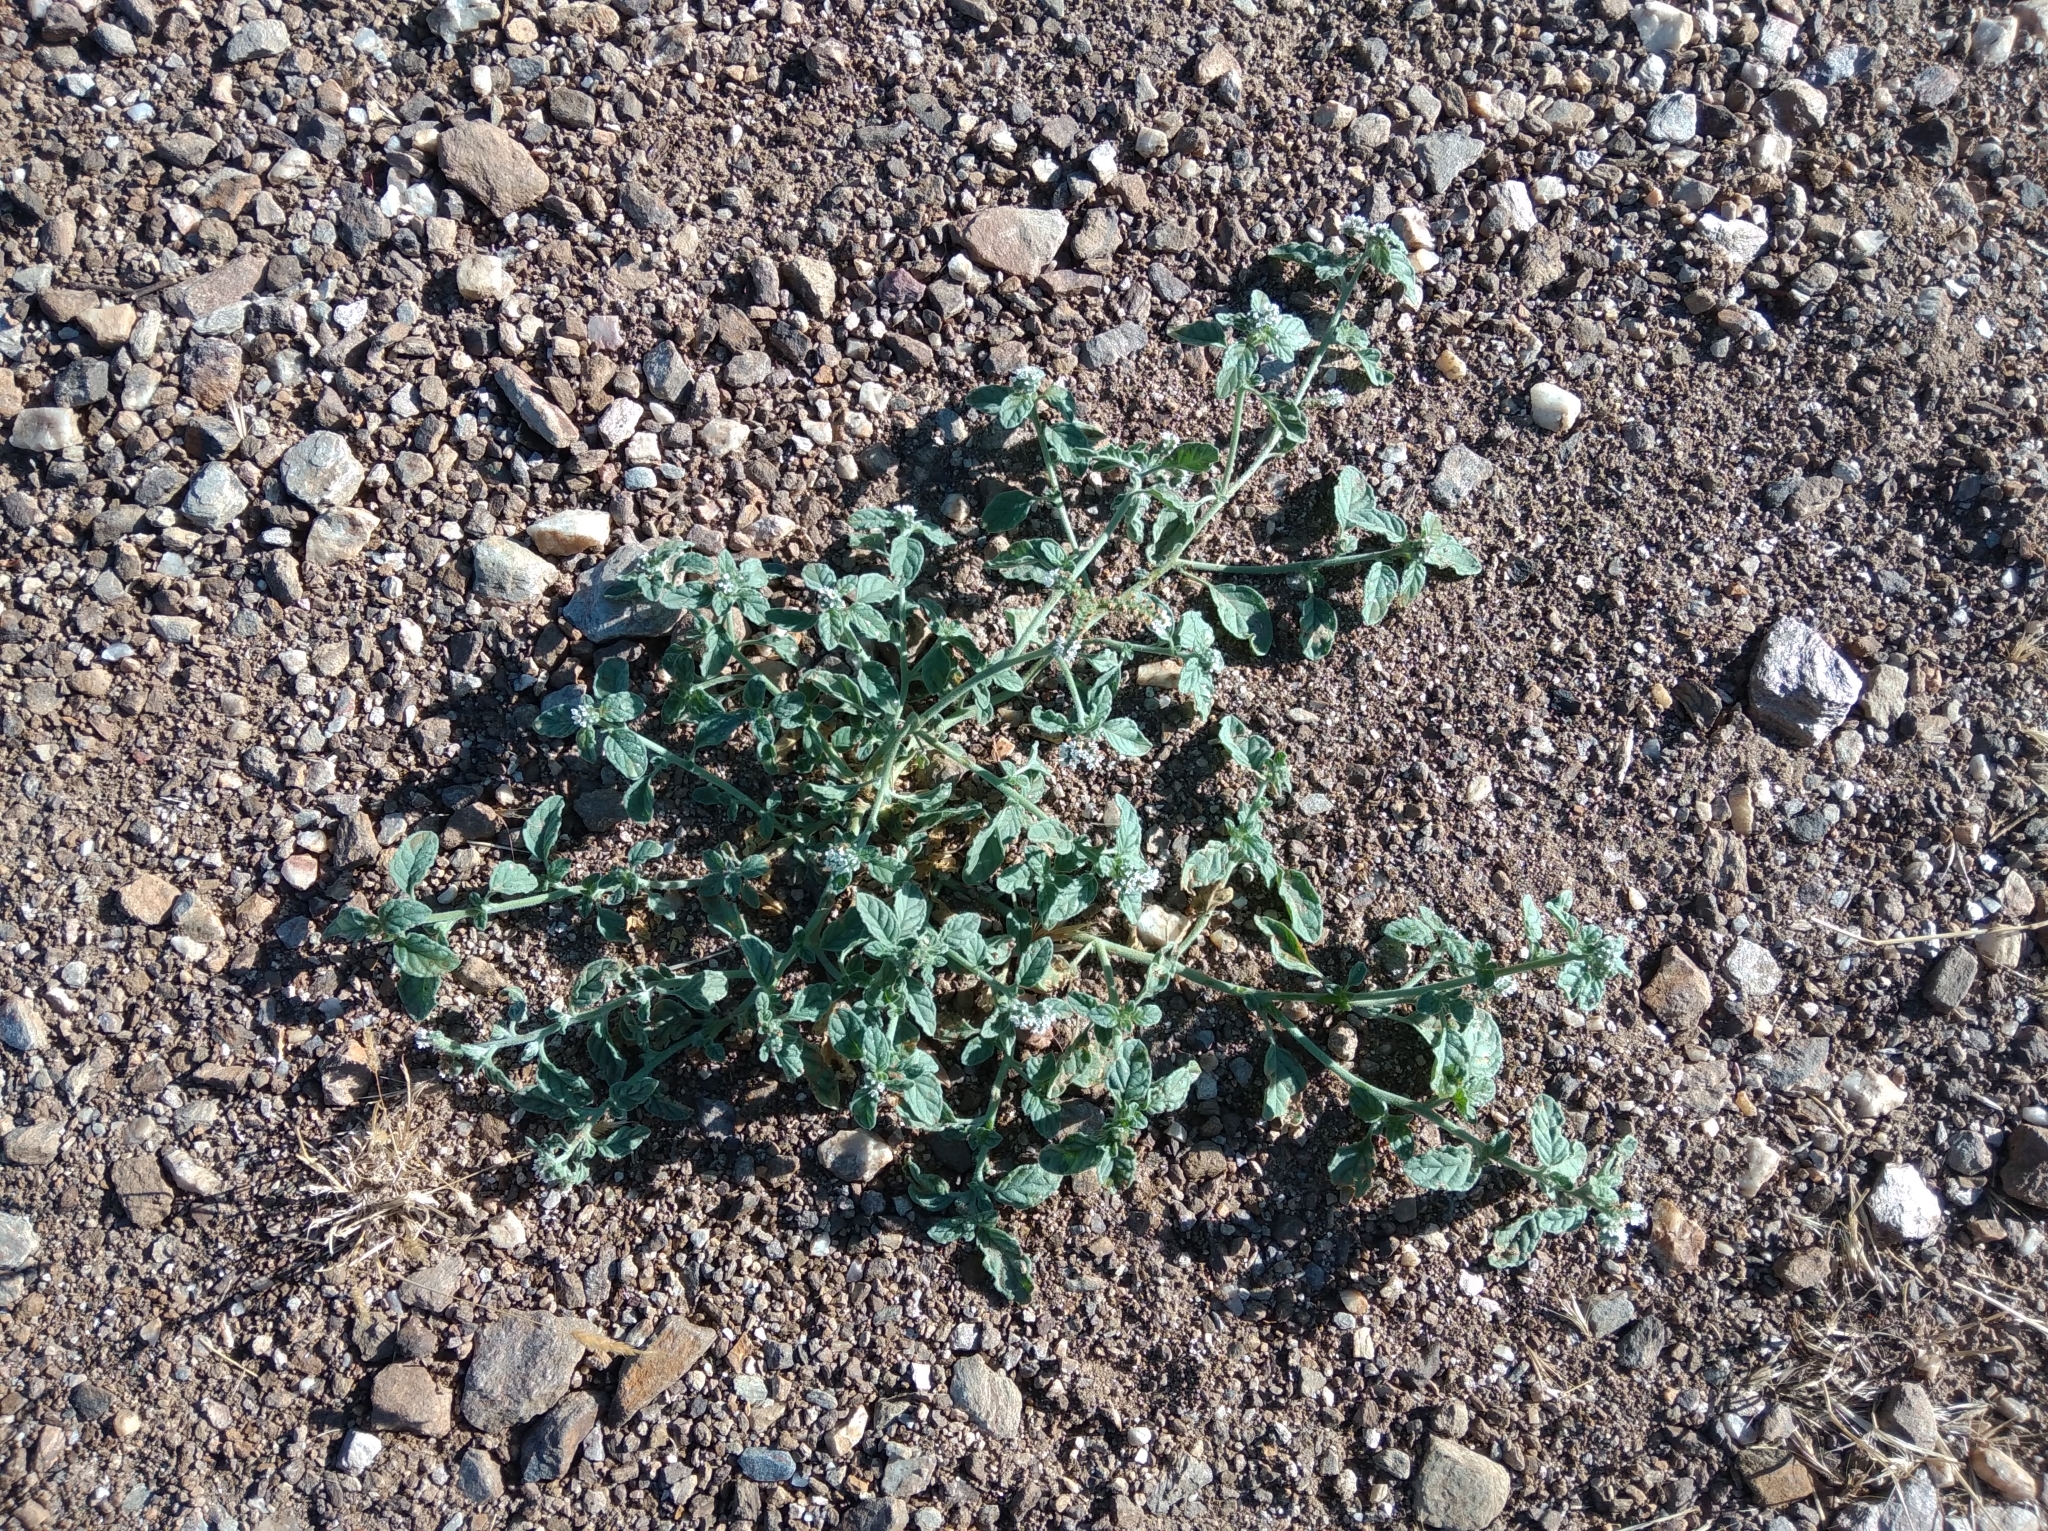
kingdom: Plantae
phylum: Tracheophyta
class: Magnoliopsida
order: Boraginales
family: Heliotropiaceae
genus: Heliotropium
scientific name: Heliotropium europaeum
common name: European heliotrope
